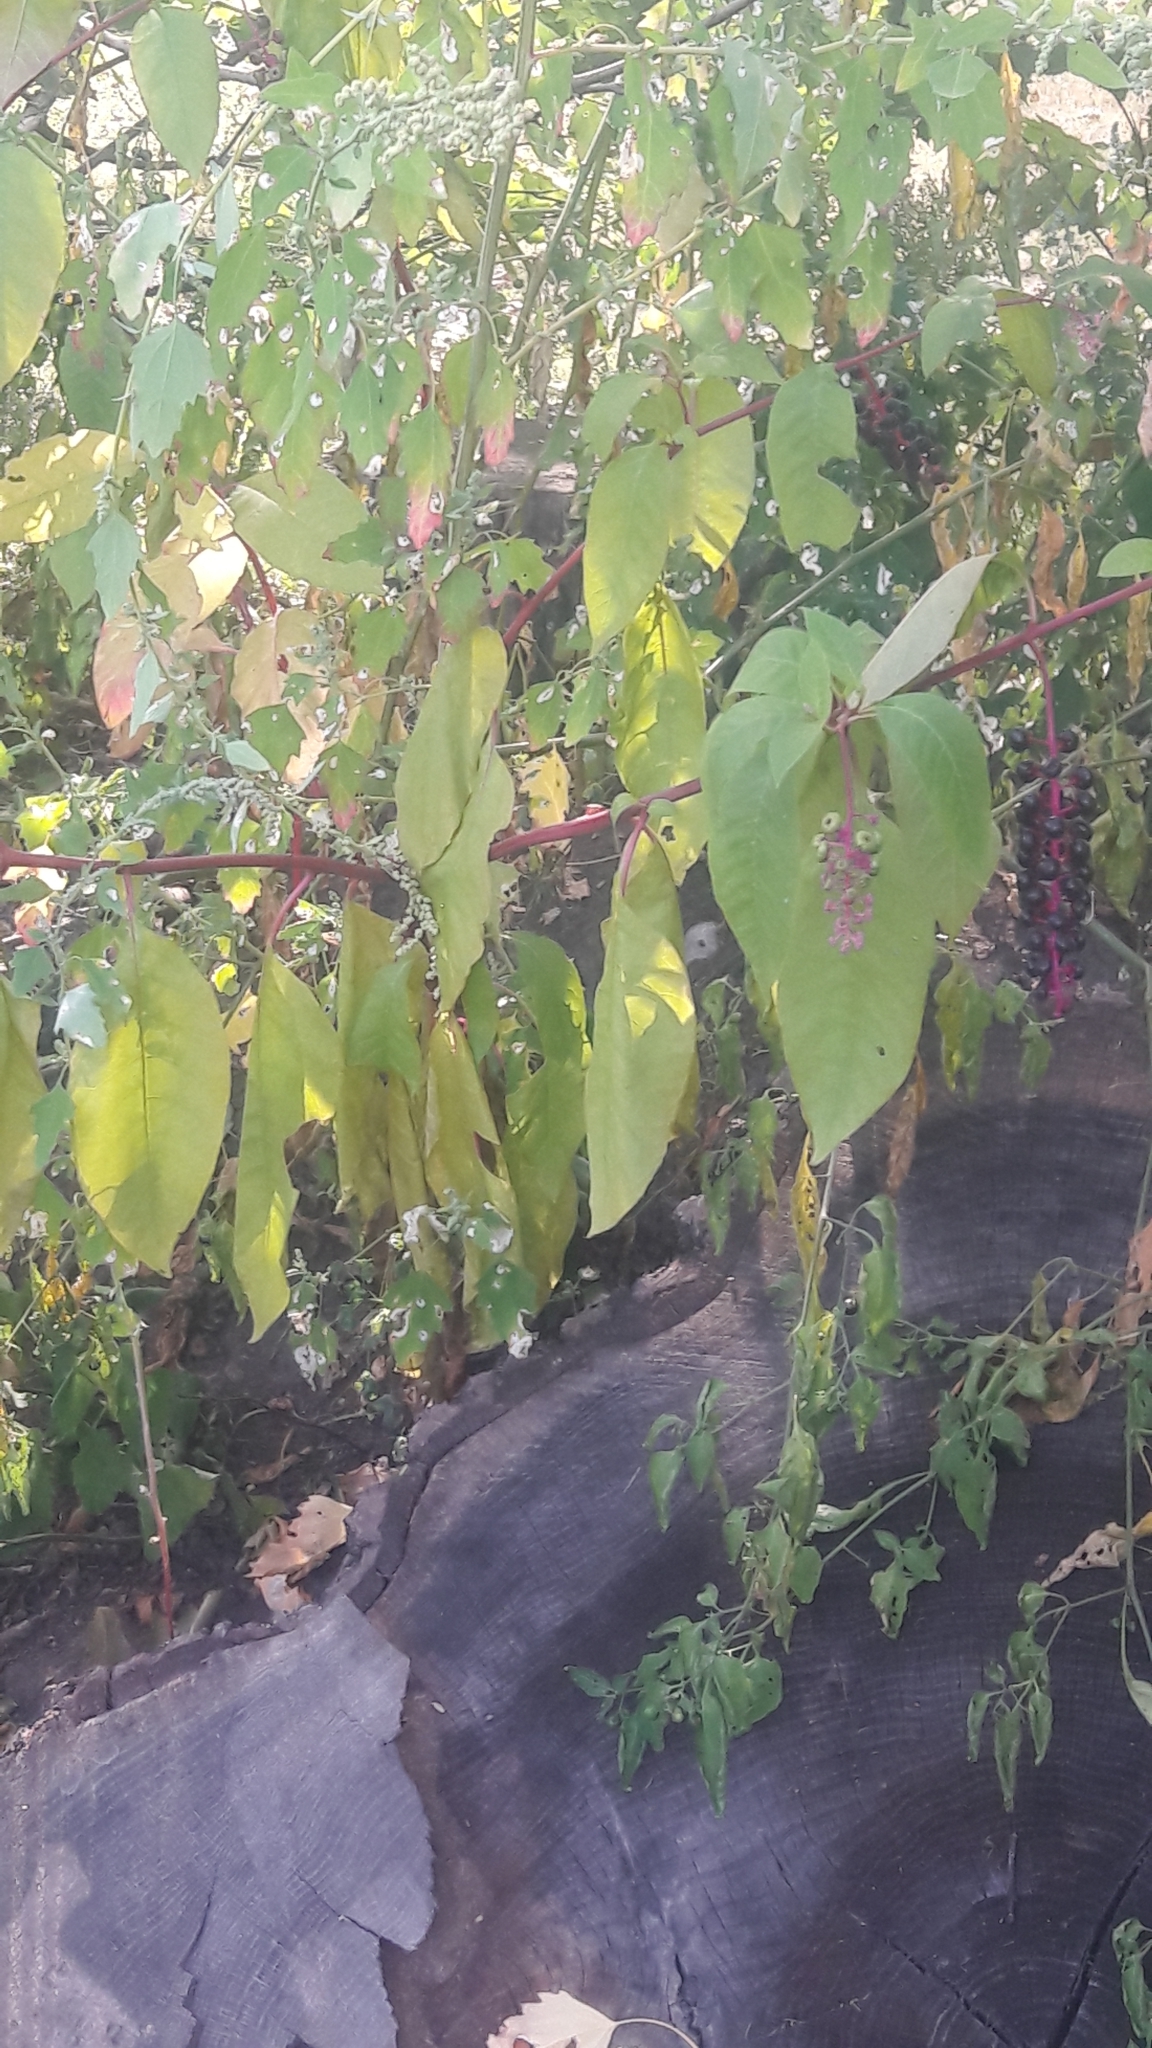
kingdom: Plantae
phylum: Tracheophyta
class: Magnoliopsida
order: Caryophyllales
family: Phytolaccaceae
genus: Phytolacca
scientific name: Phytolacca americana
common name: American pokeweed
